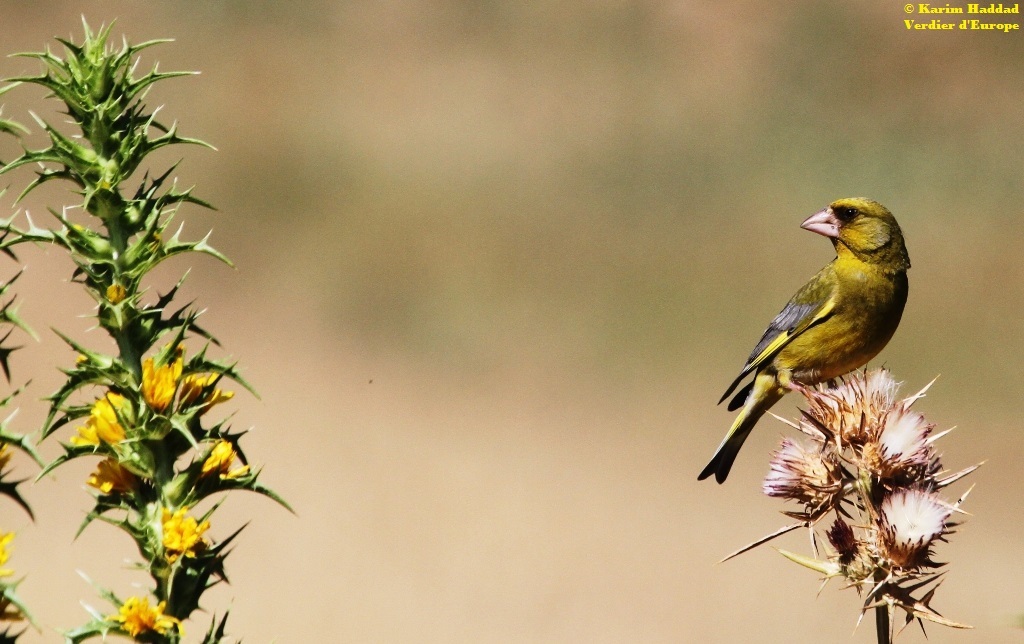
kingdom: Plantae
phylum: Tracheophyta
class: Liliopsida
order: Poales
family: Poaceae
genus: Chloris
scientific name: Chloris chloris
